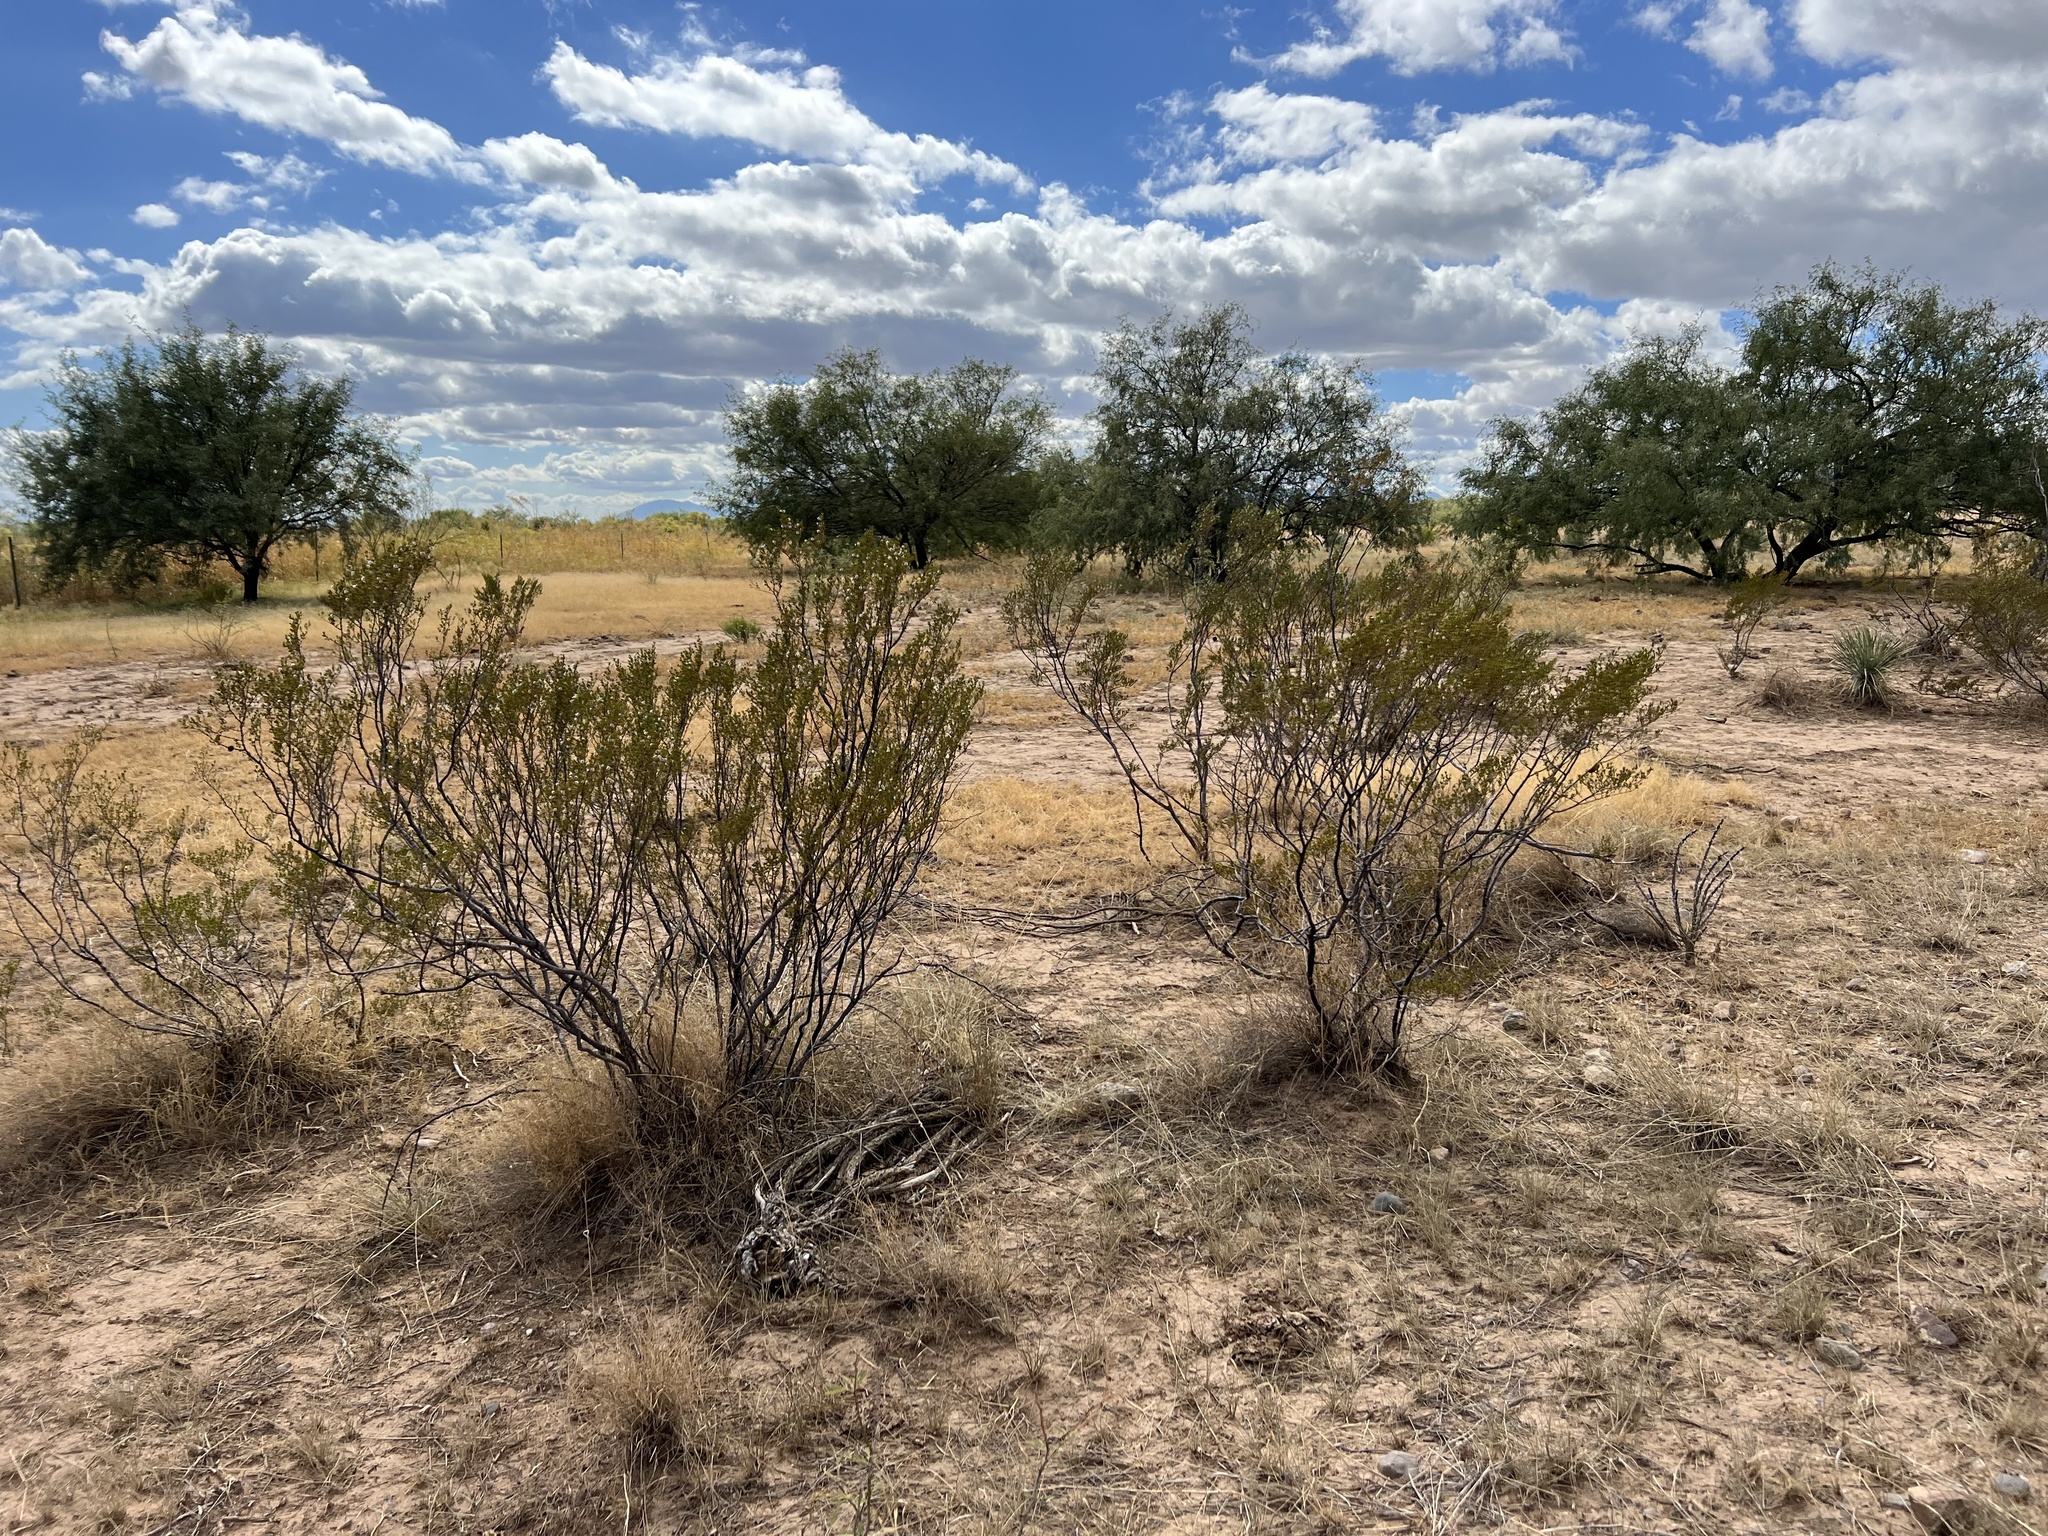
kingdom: Plantae
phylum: Tracheophyta
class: Magnoliopsida
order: Zygophyllales
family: Zygophyllaceae
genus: Larrea
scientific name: Larrea tridentata
